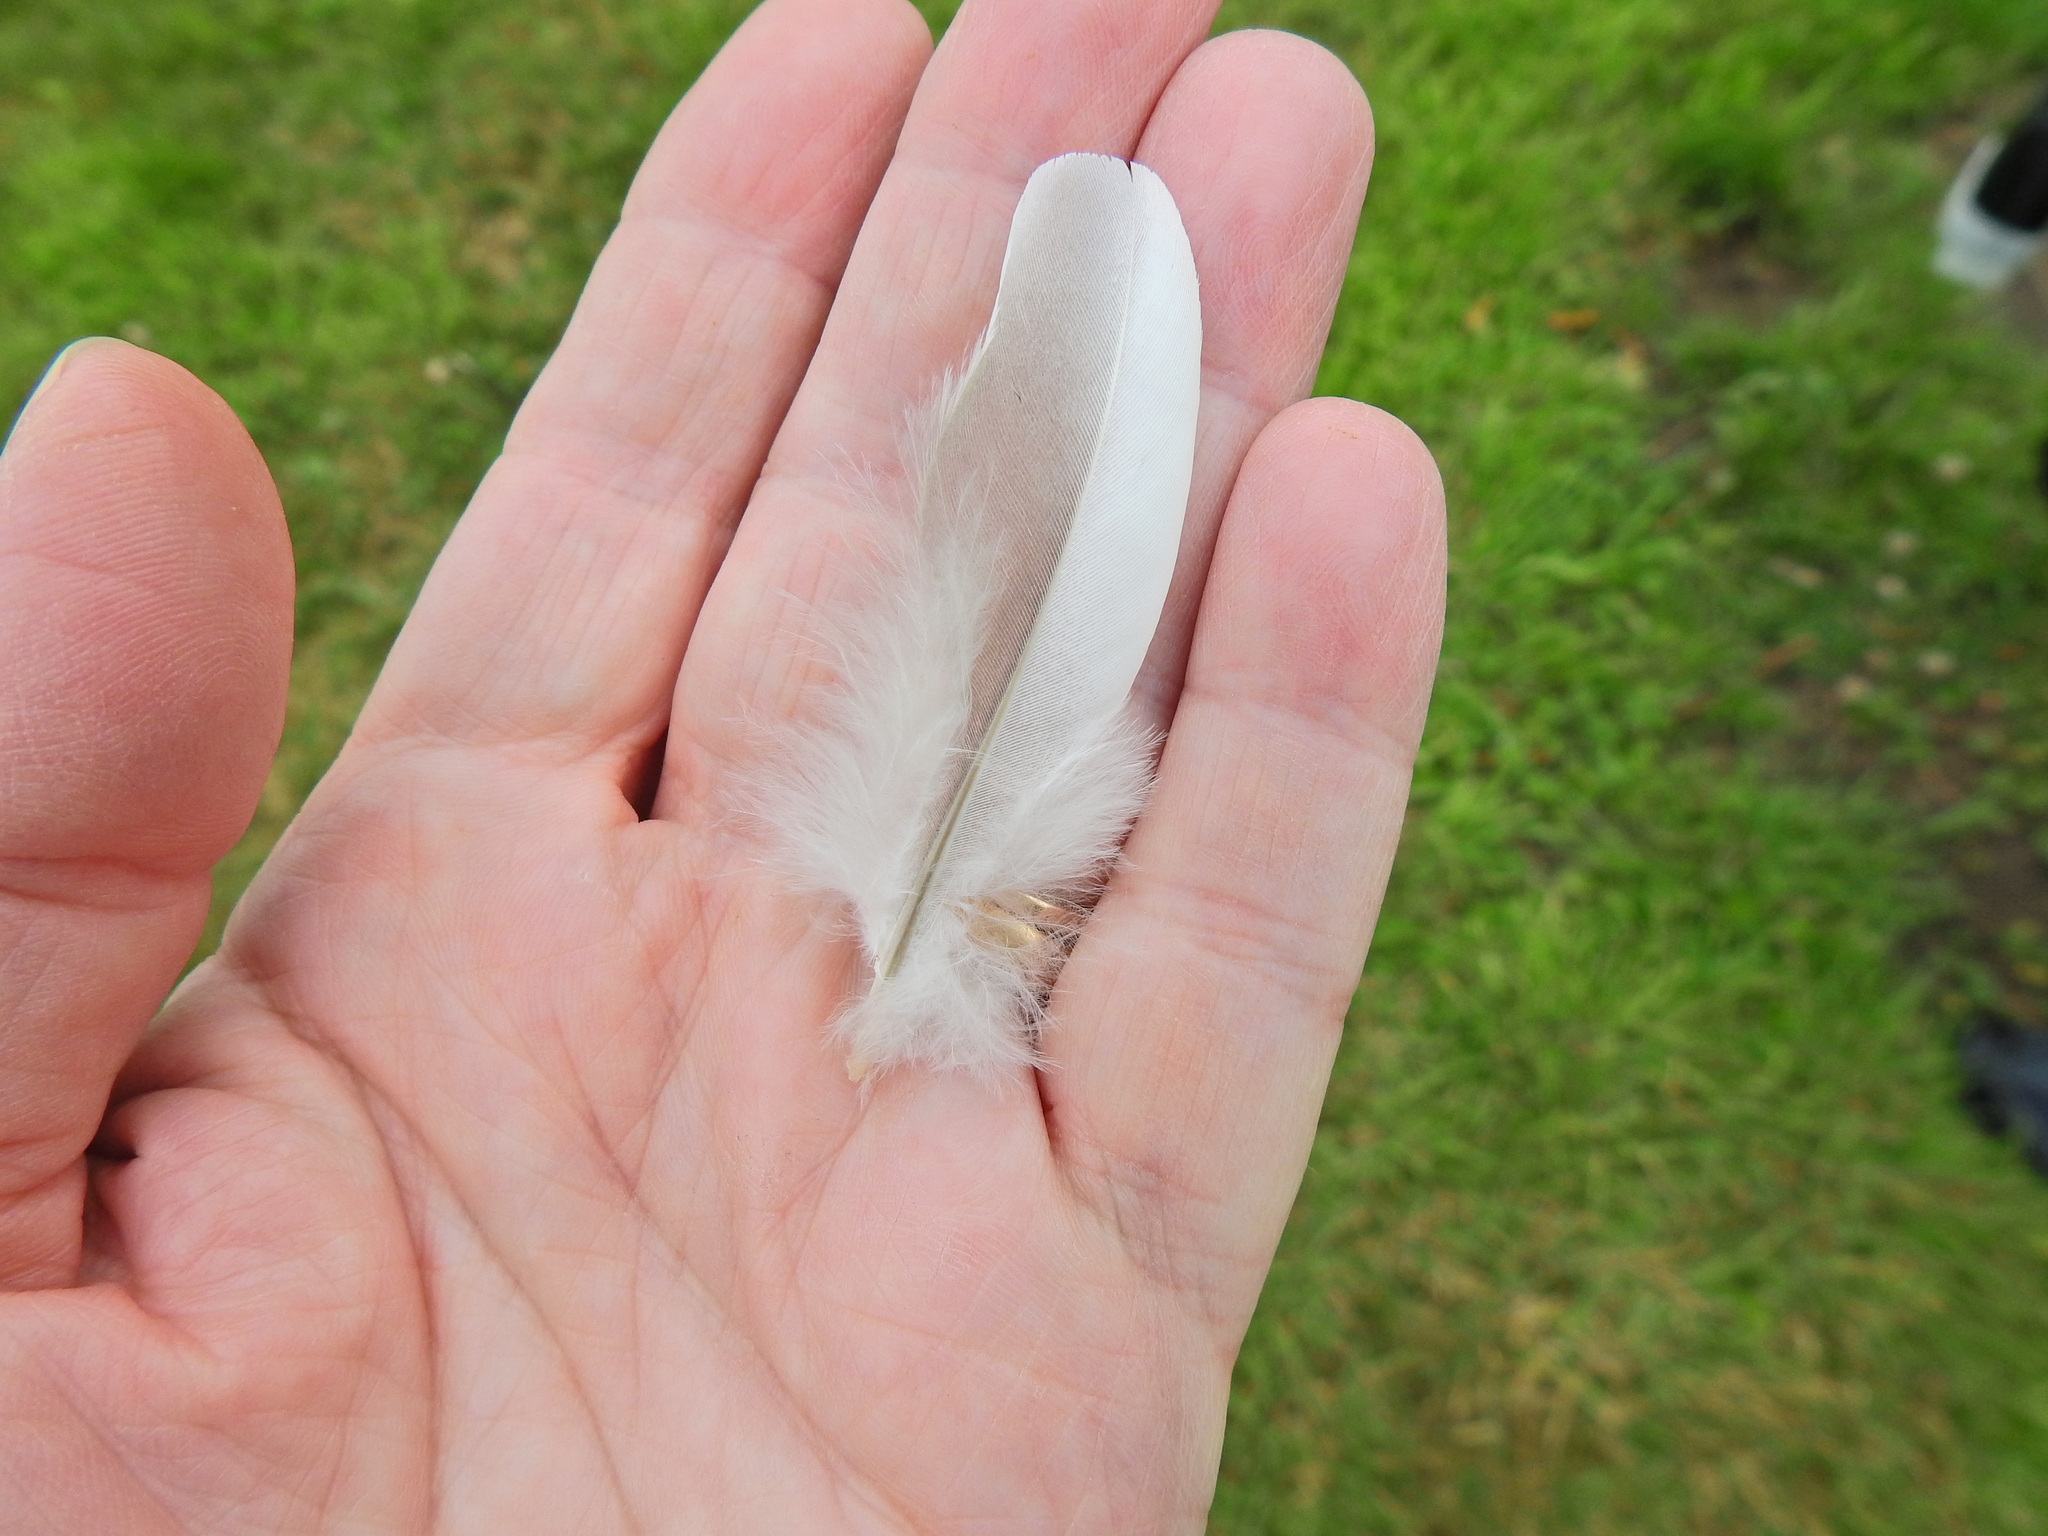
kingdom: Animalia
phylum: Chordata
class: Aves
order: Columbiformes
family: Columbidae
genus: Columba
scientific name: Columba palumbus
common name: Common wood pigeon
